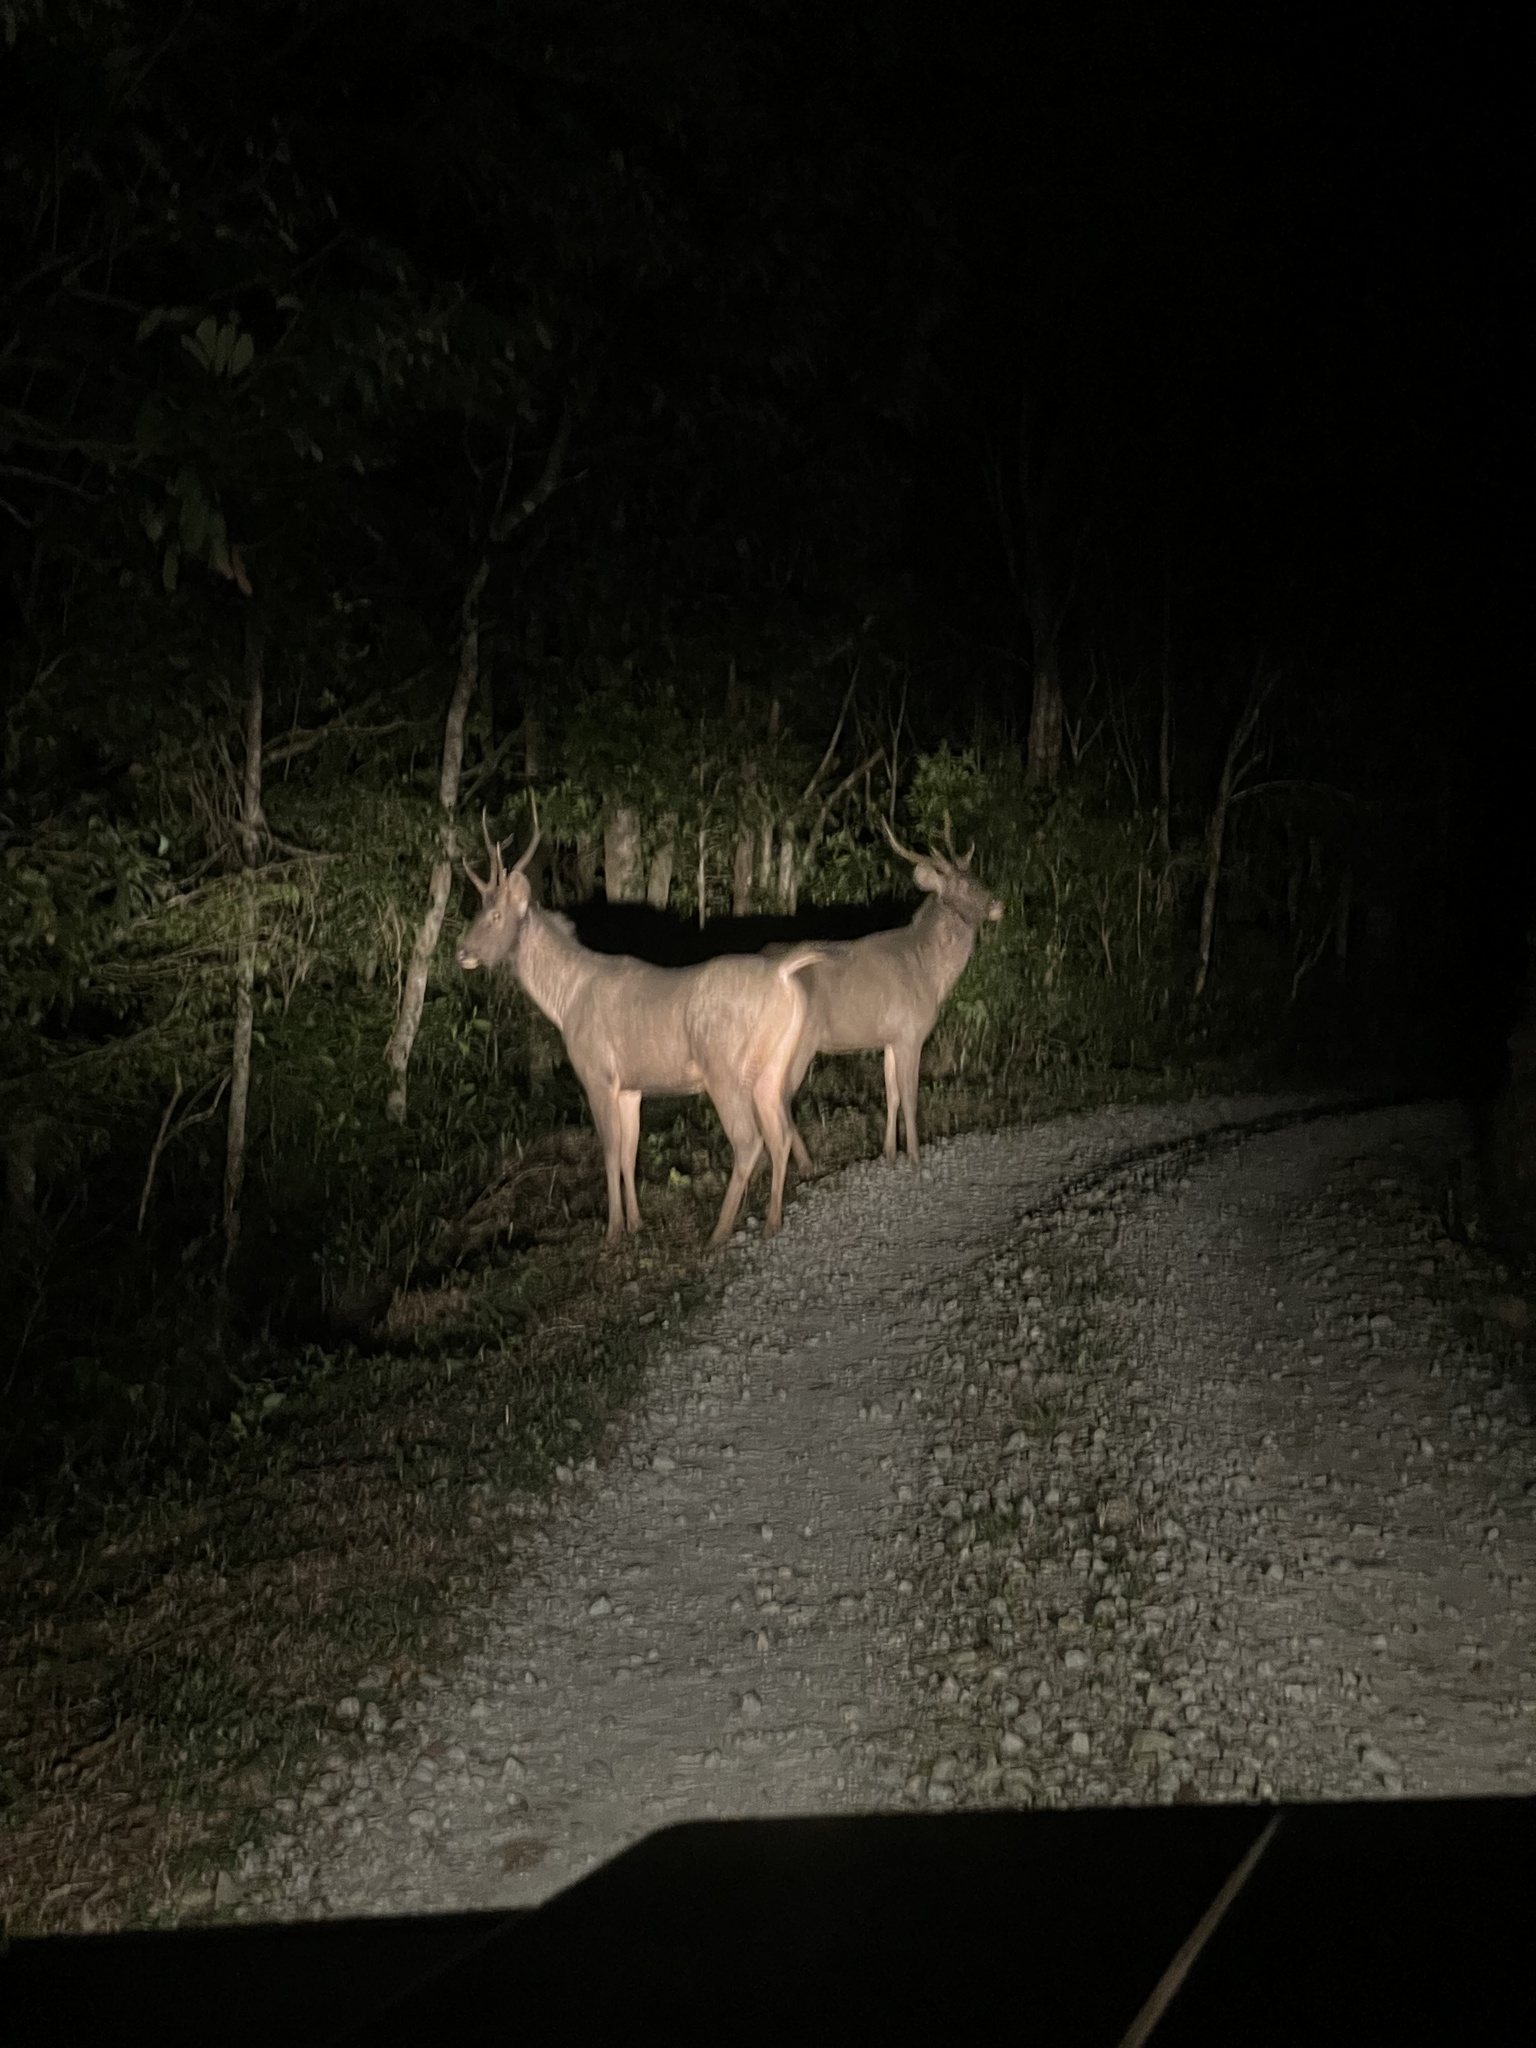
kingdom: Animalia
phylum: Chordata
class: Mammalia
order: Artiodactyla
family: Cervidae
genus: Rusa
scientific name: Rusa unicolor
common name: Sambar
